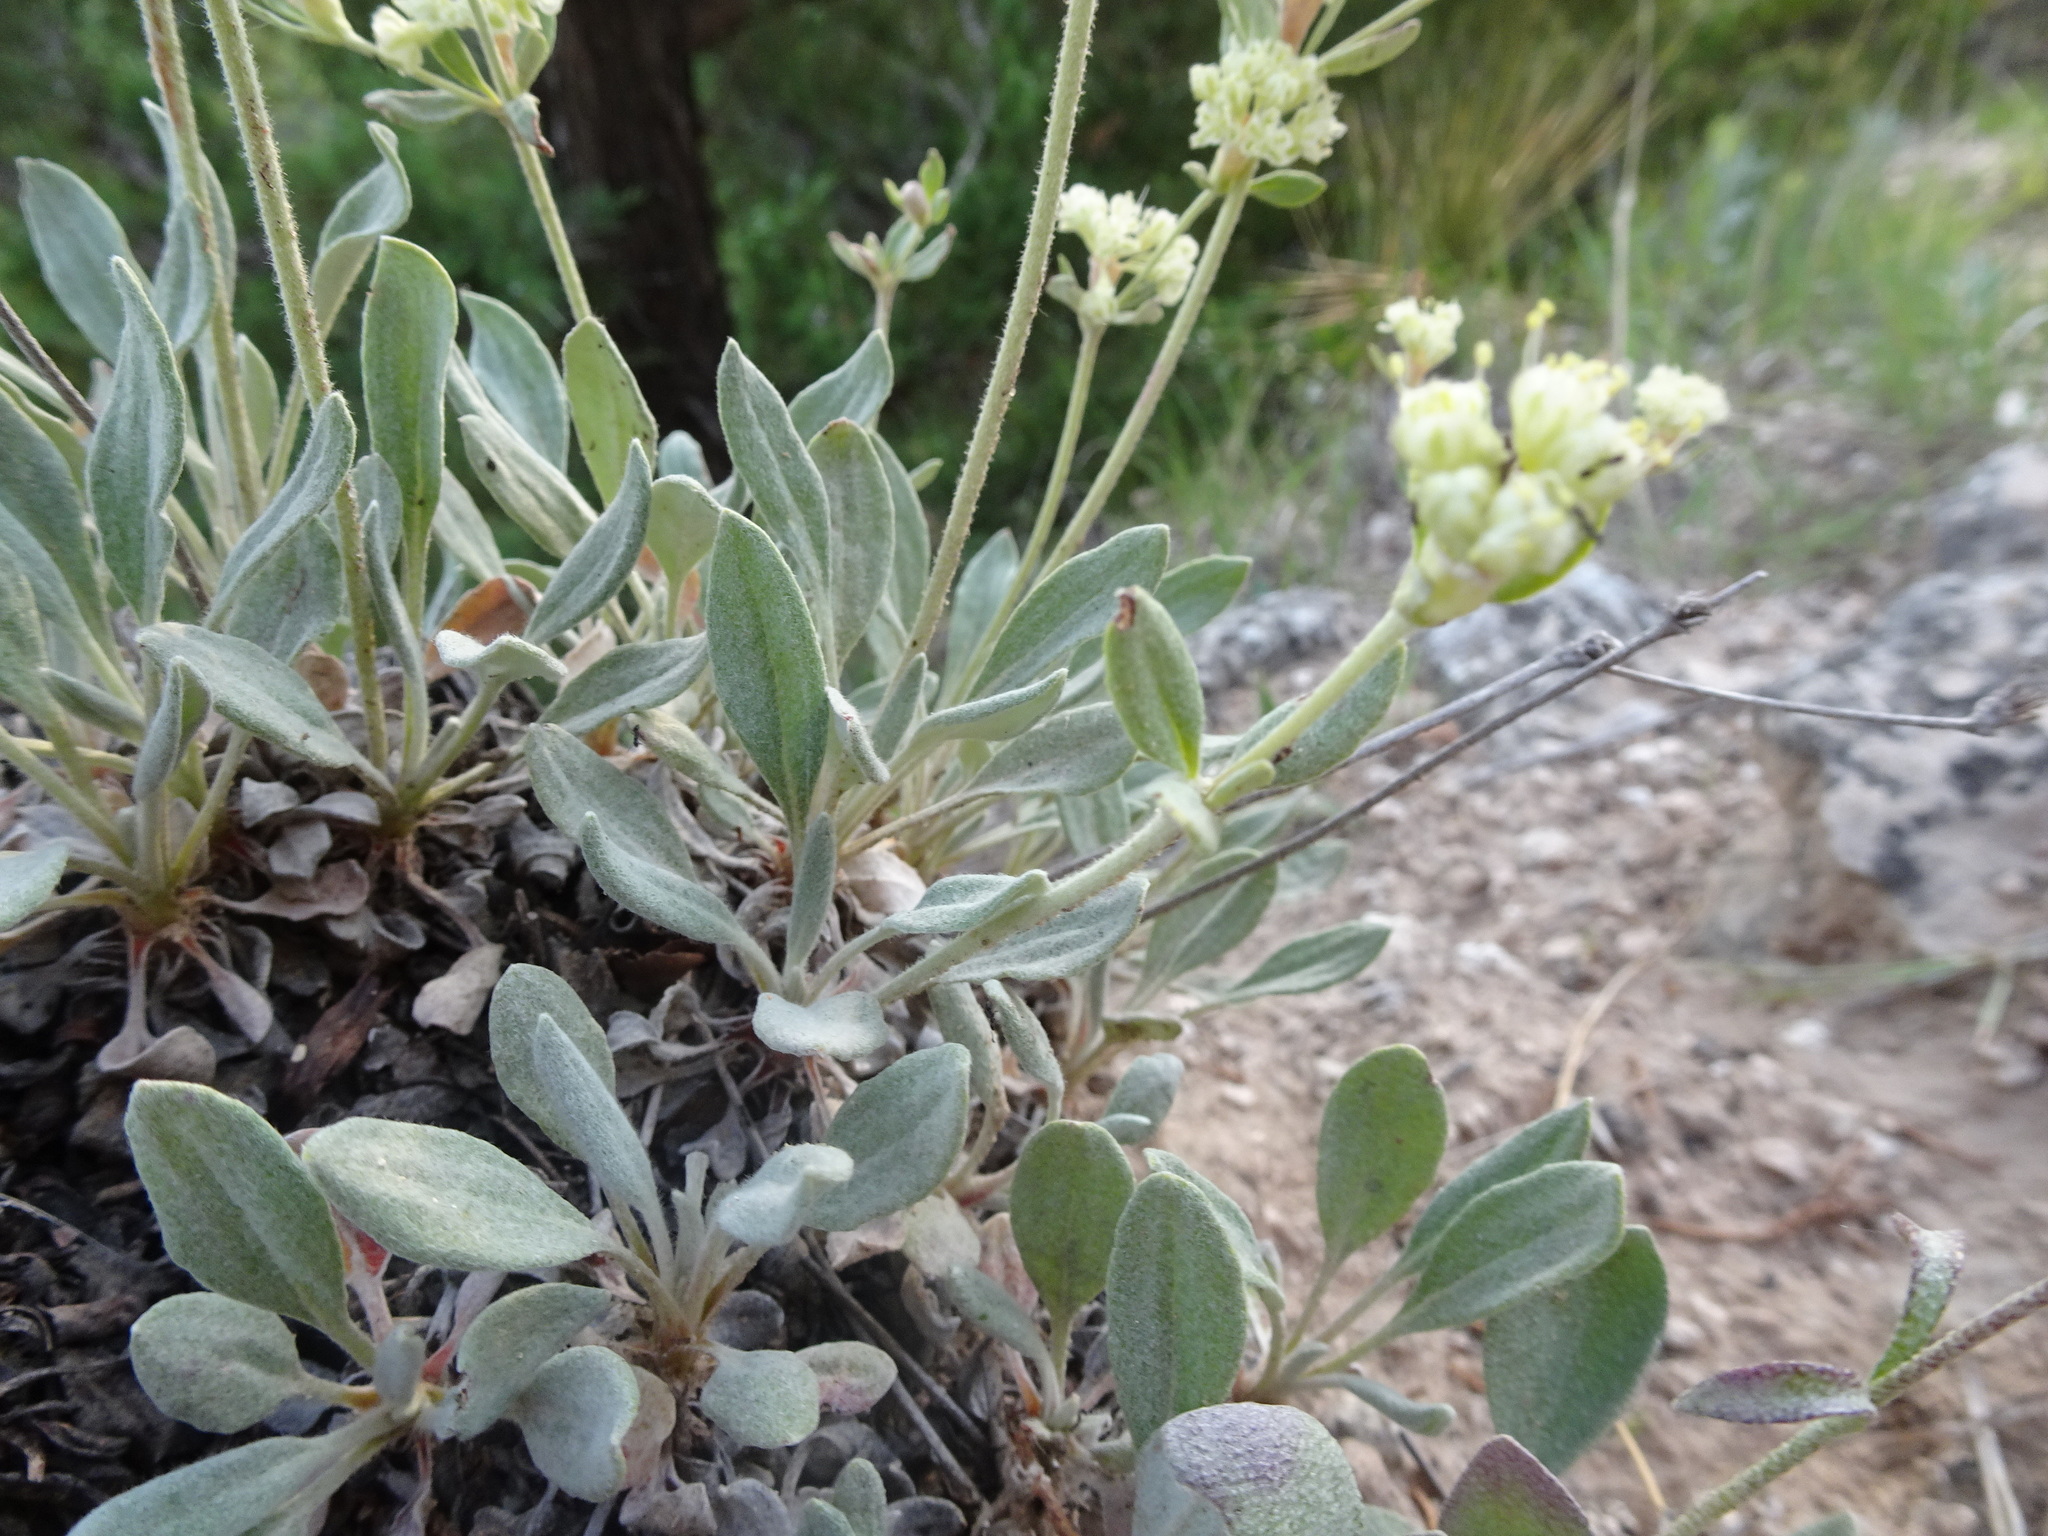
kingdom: Plantae
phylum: Tracheophyta
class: Magnoliopsida
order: Caryophyllales
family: Polygonaceae
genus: Eriogonum
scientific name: Eriogonum jamesii
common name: Antelope-sage
